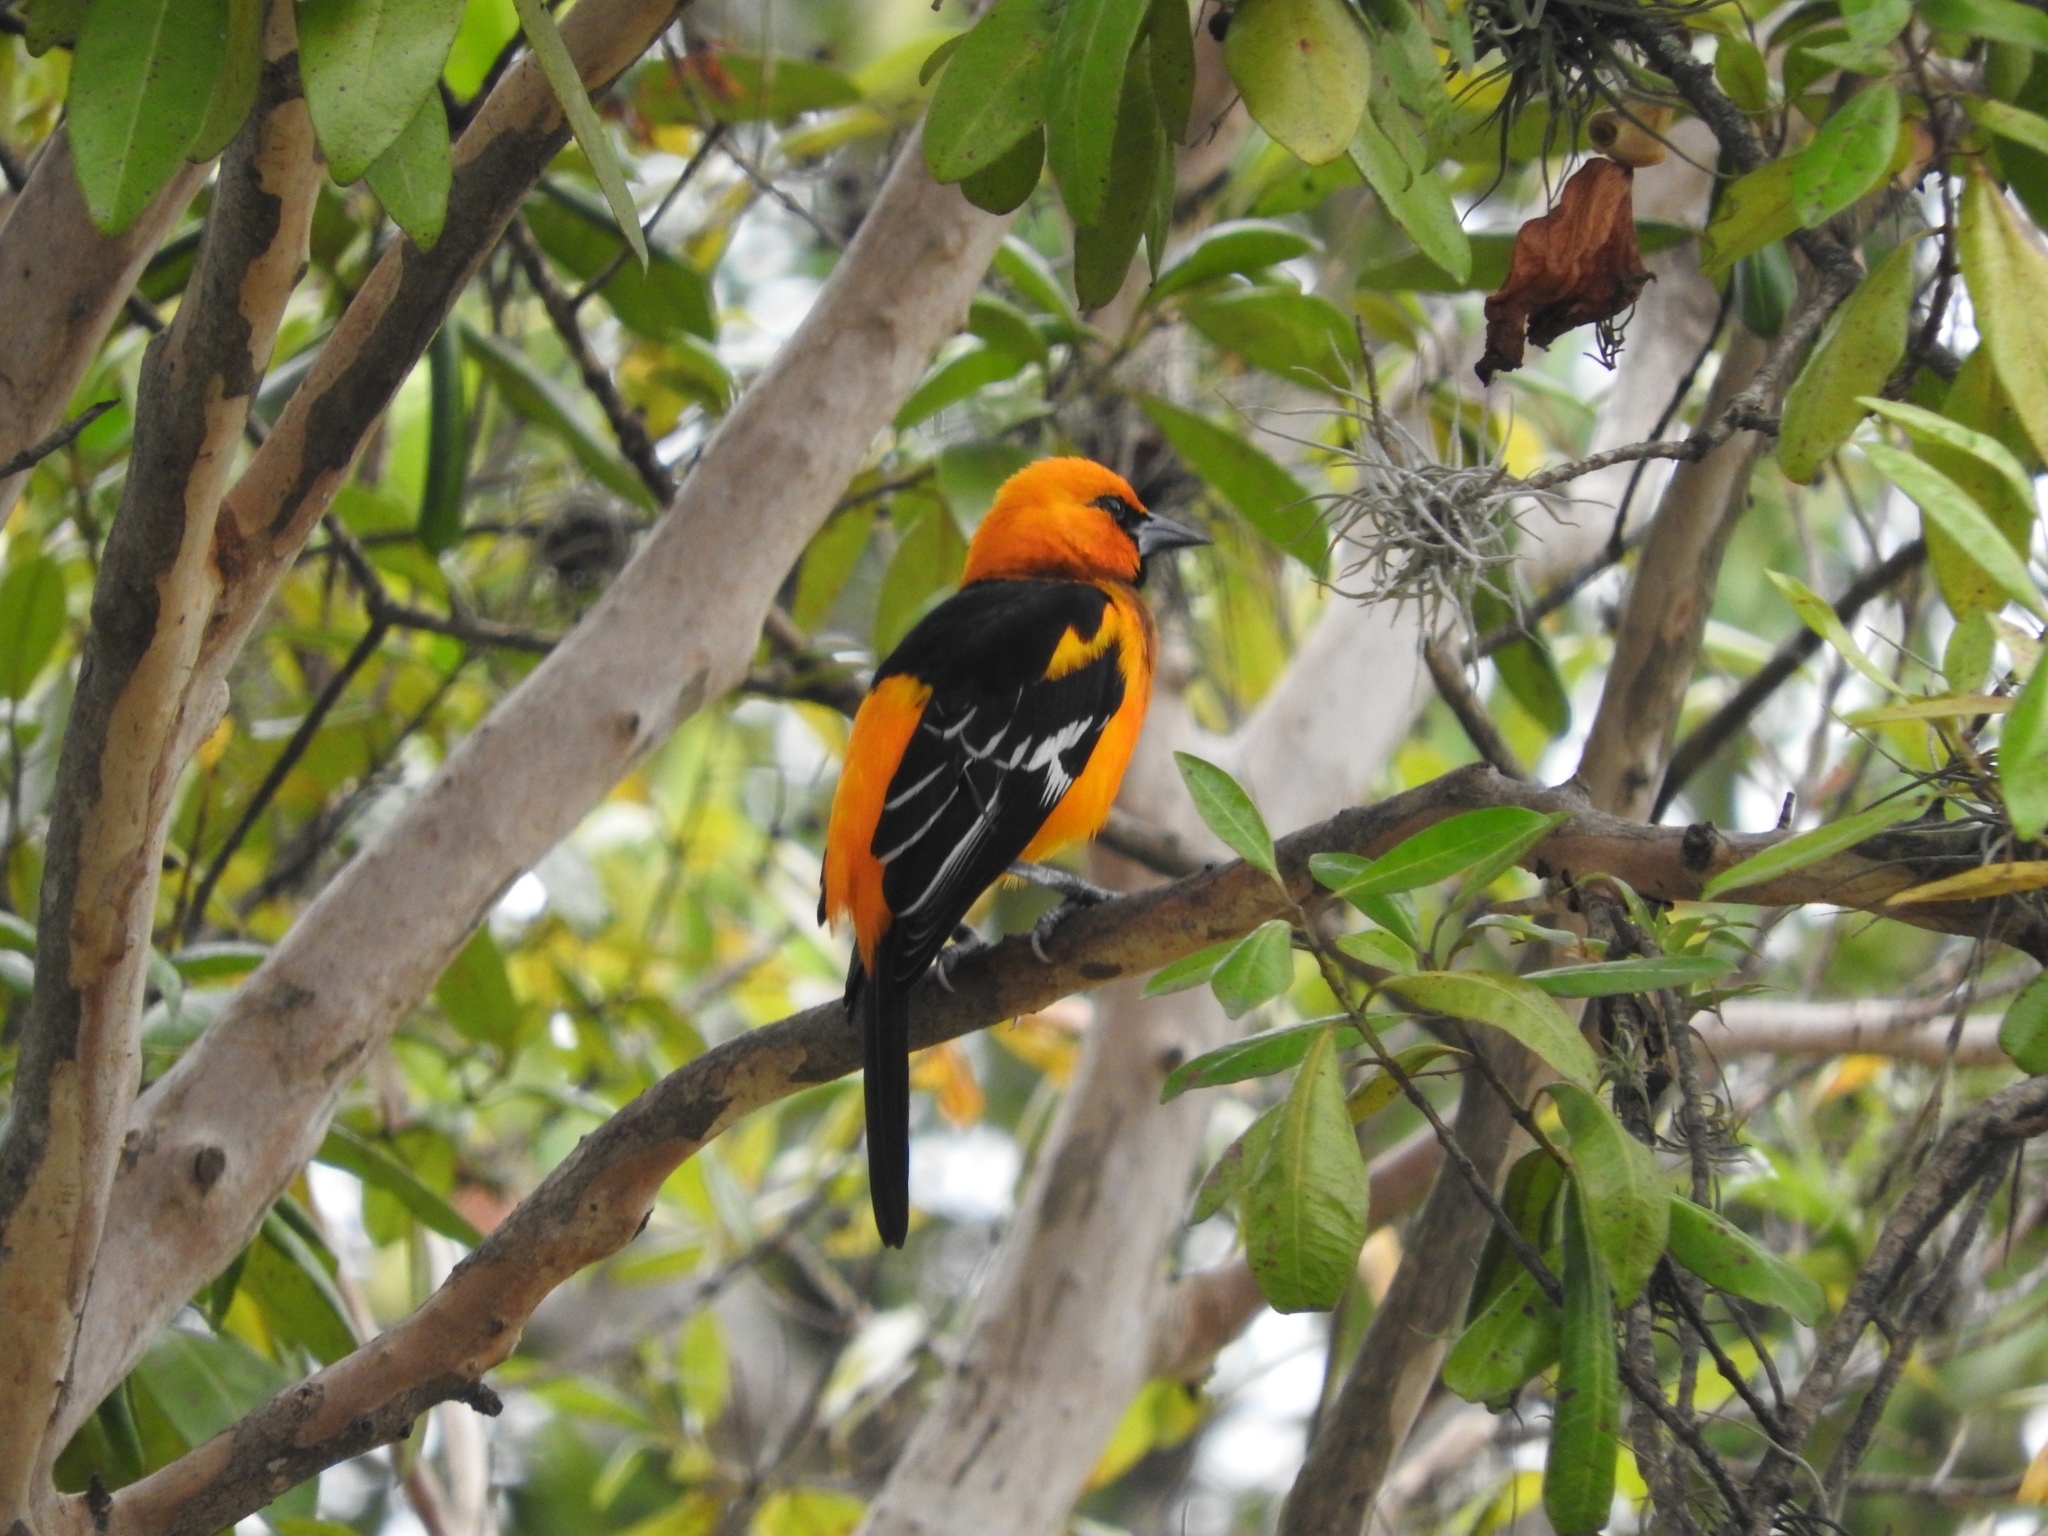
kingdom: Animalia
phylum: Chordata
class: Aves
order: Passeriformes
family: Icteridae
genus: Icterus
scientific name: Icterus gularis
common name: Altamira oriole
